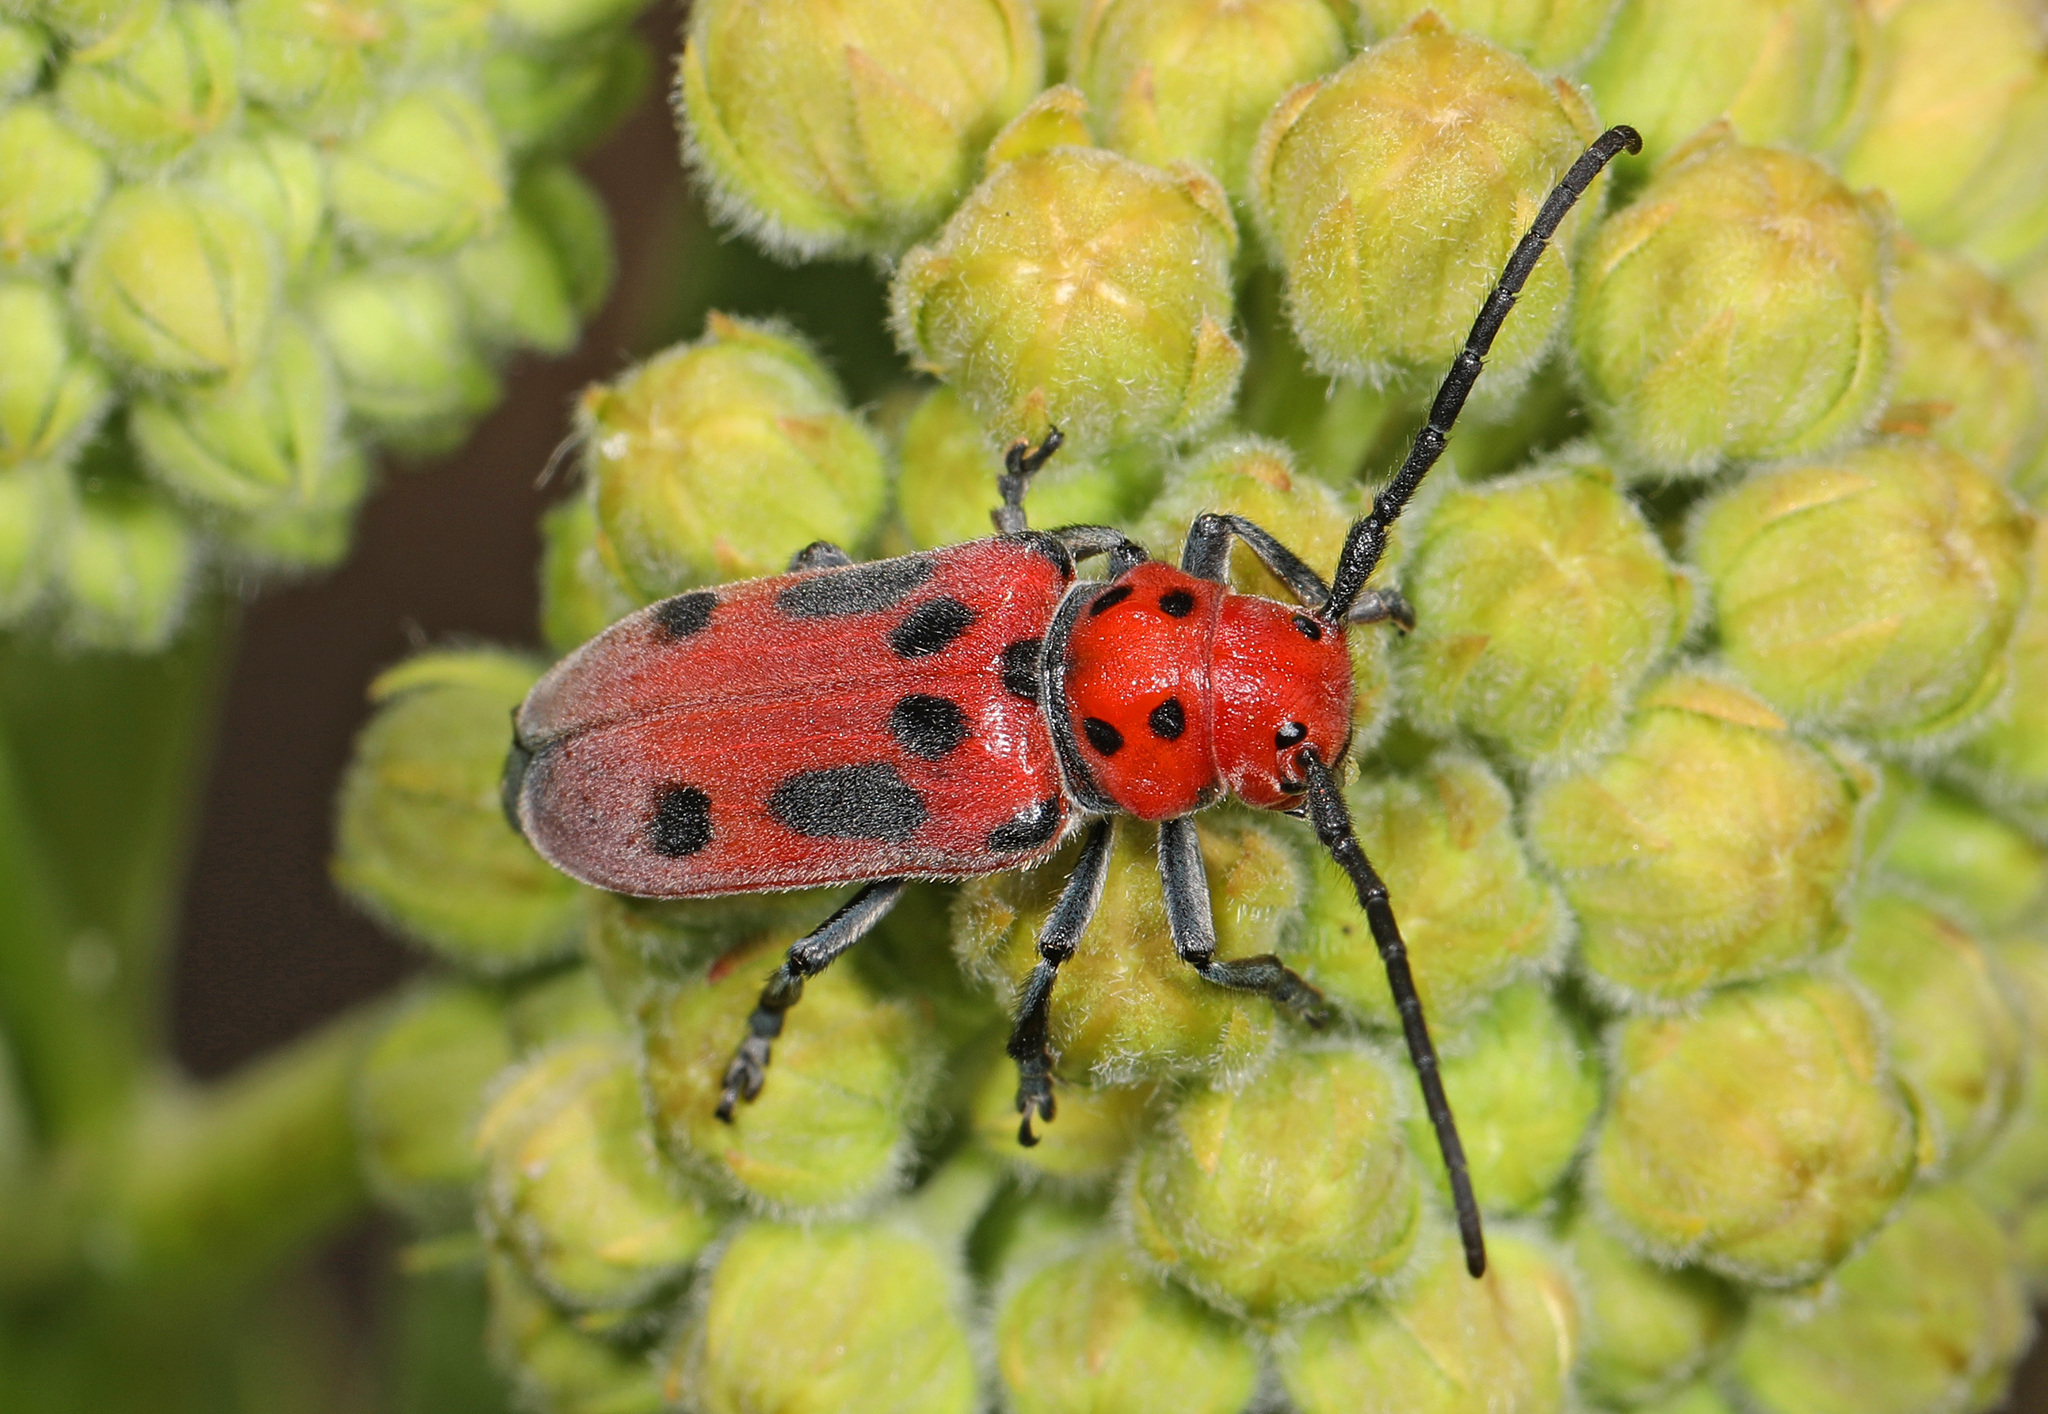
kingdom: Animalia
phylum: Arthropoda
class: Insecta
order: Coleoptera
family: Cerambycidae
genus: Tetraopes
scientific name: Tetraopes tetrophthalmus
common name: Red milkweed beetle
